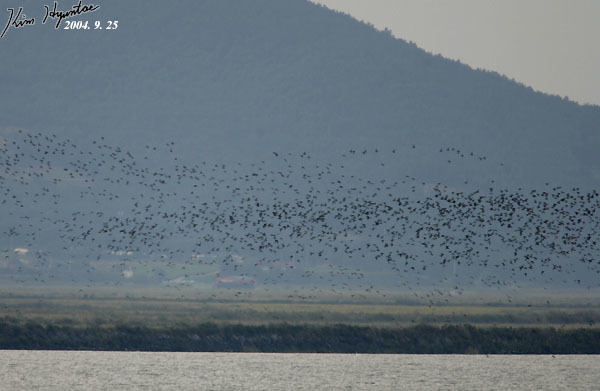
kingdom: Animalia
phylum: Chordata
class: Aves
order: Anseriformes
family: Anatidae
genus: Sibirionetta
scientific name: Sibirionetta formosa
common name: Baikal teal
